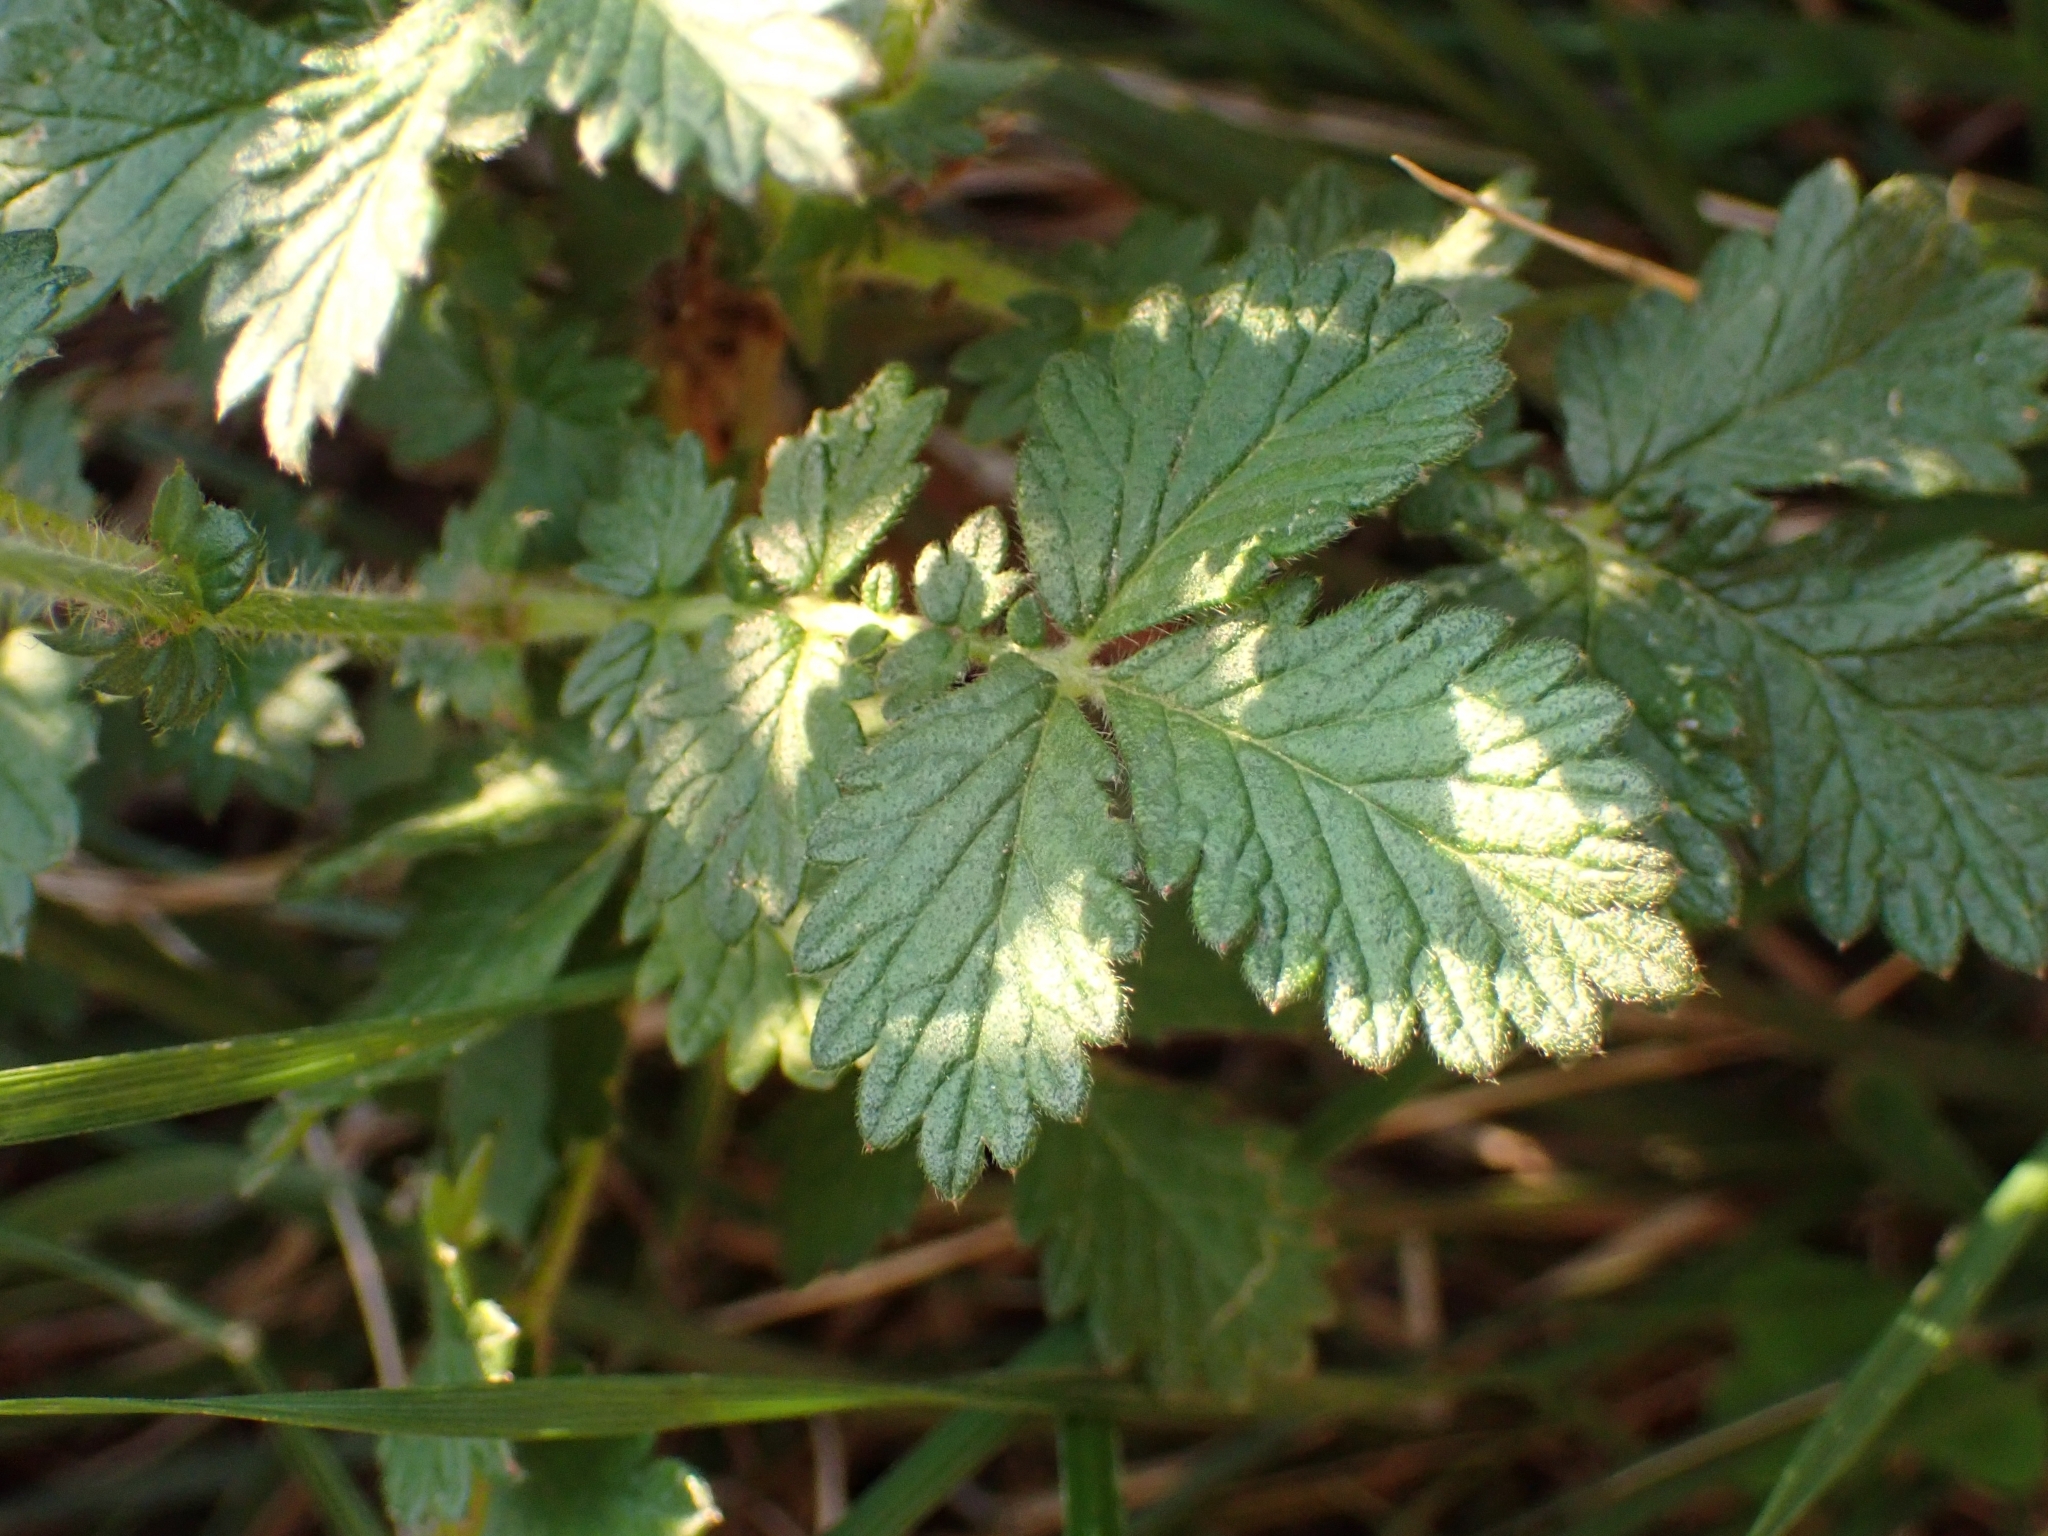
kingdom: Plantae
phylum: Tracheophyta
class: Magnoliopsida
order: Rosales
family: Rosaceae
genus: Agrimonia
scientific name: Agrimonia eupatoria
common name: Agrimony
